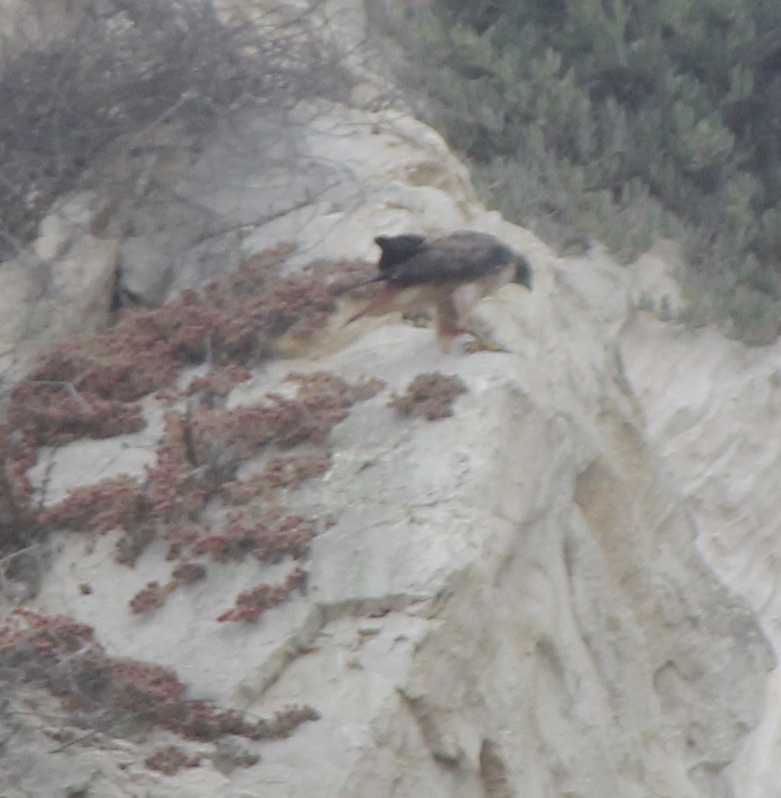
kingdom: Animalia
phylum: Chordata
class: Aves
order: Accipitriformes
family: Accipitridae
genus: Buteo
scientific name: Buteo jamaicensis
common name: Red-tailed hawk
